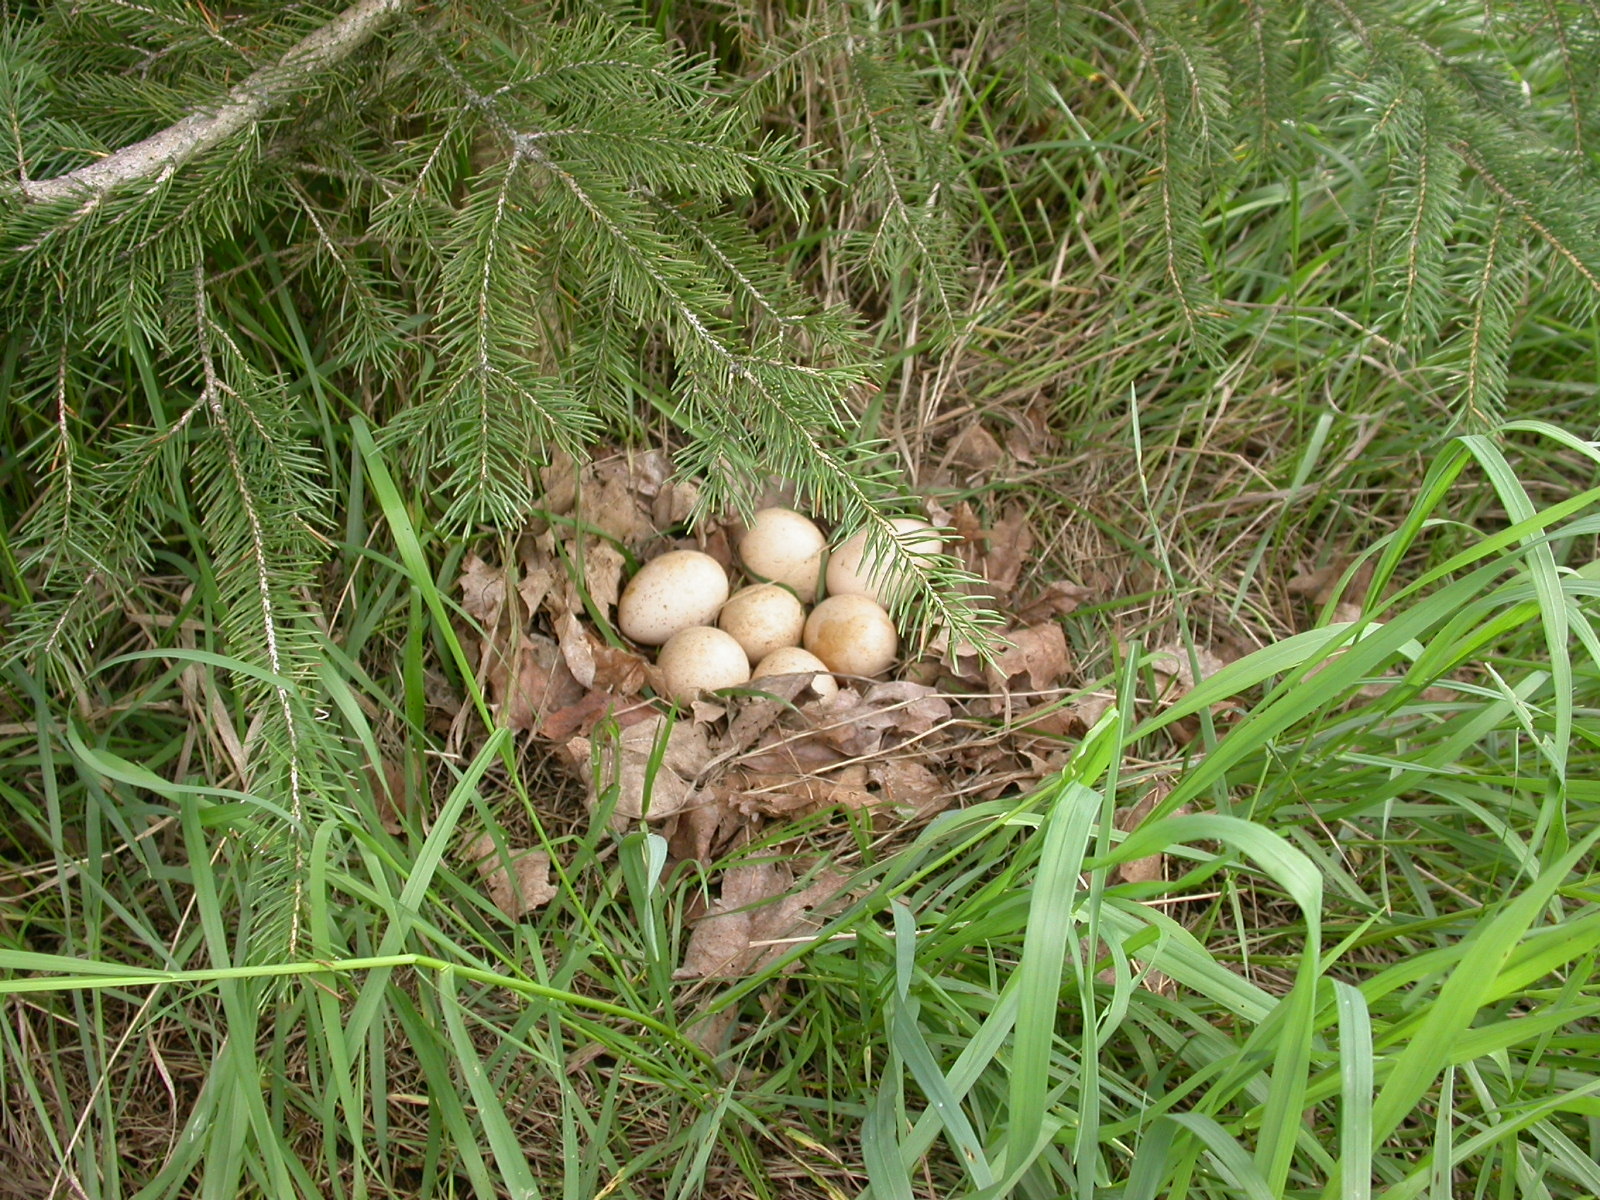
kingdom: Animalia
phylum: Chordata
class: Aves
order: Galliformes
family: Phasianidae
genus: Meleagris
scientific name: Meleagris gallopavo
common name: Wild turkey
